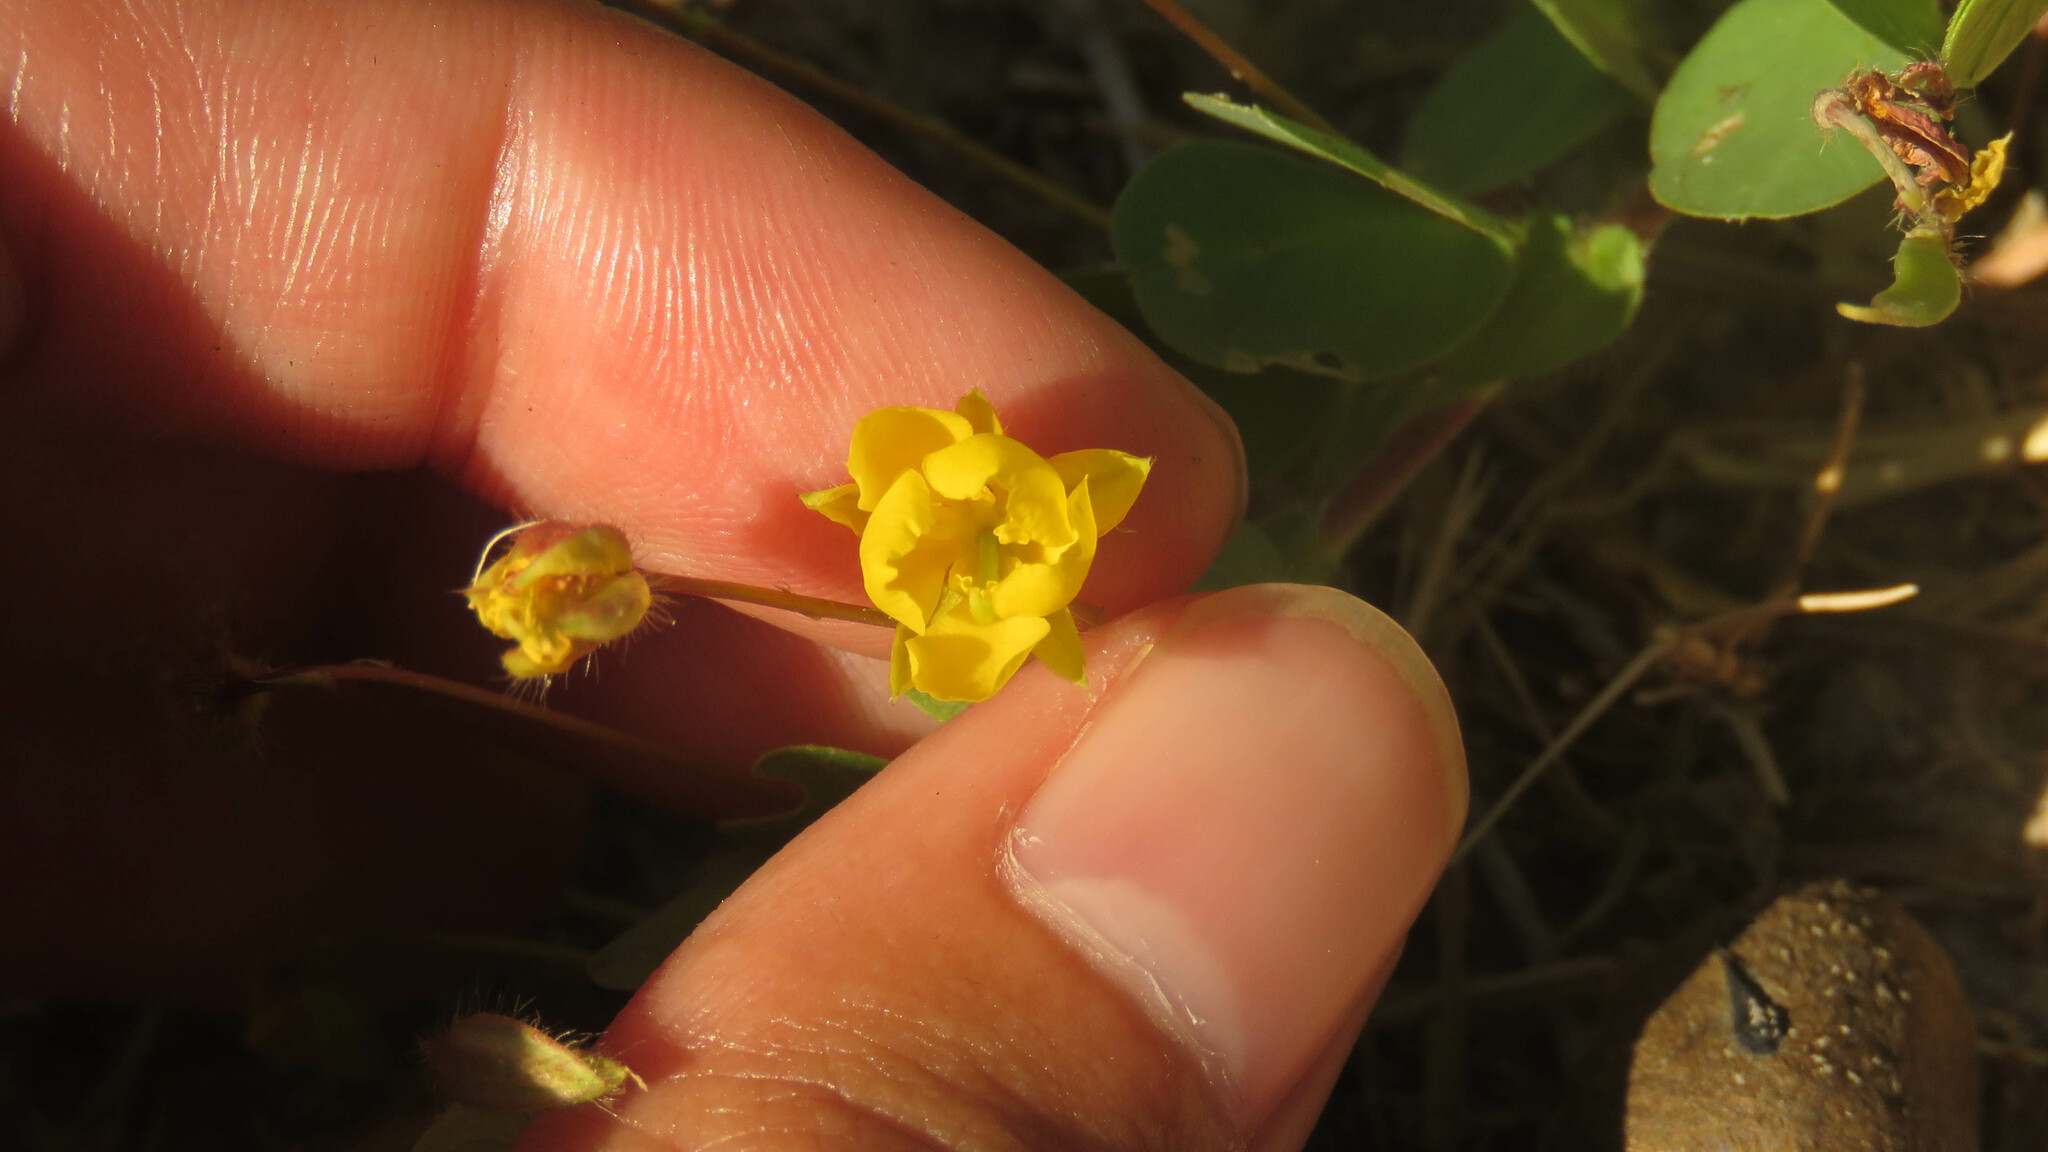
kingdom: Plantae
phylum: Tracheophyta
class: Magnoliopsida
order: Fabales
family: Fabaceae
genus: Chamaecrista
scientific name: Chamaecrista rotundifolia
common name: Round-leaf cassia
